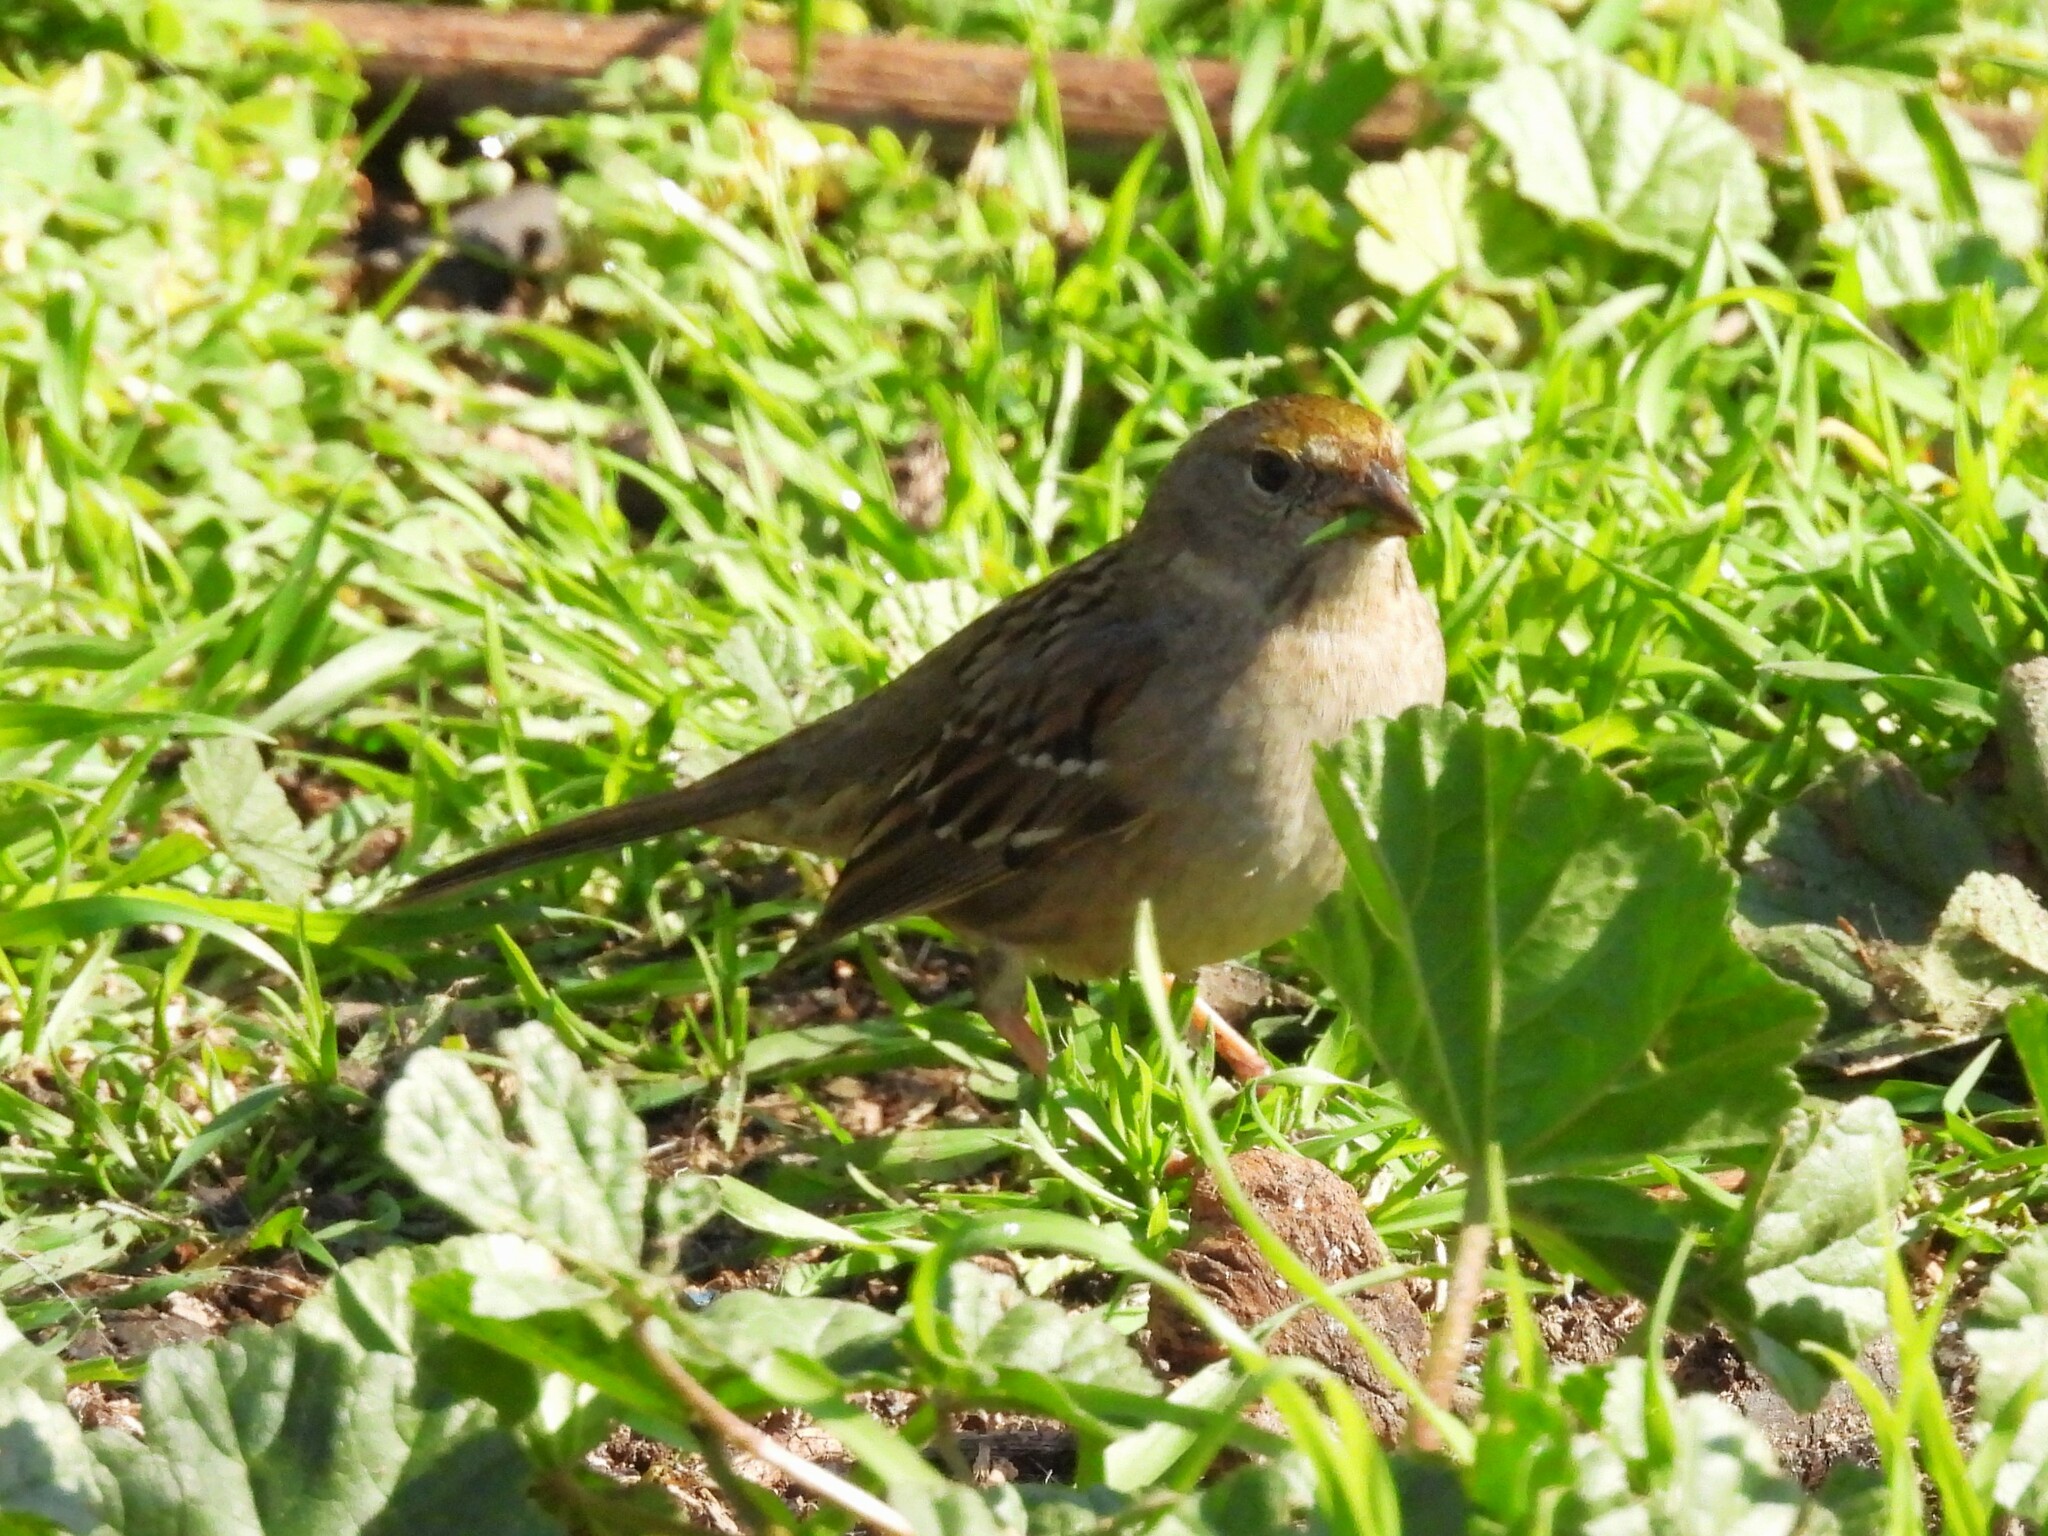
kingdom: Animalia
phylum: Chordata
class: Aves
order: Passeriformes
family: Passerellidae
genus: Zonotrichia
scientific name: Zonotrichia atricapilla
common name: Golden-crowned sparrow
